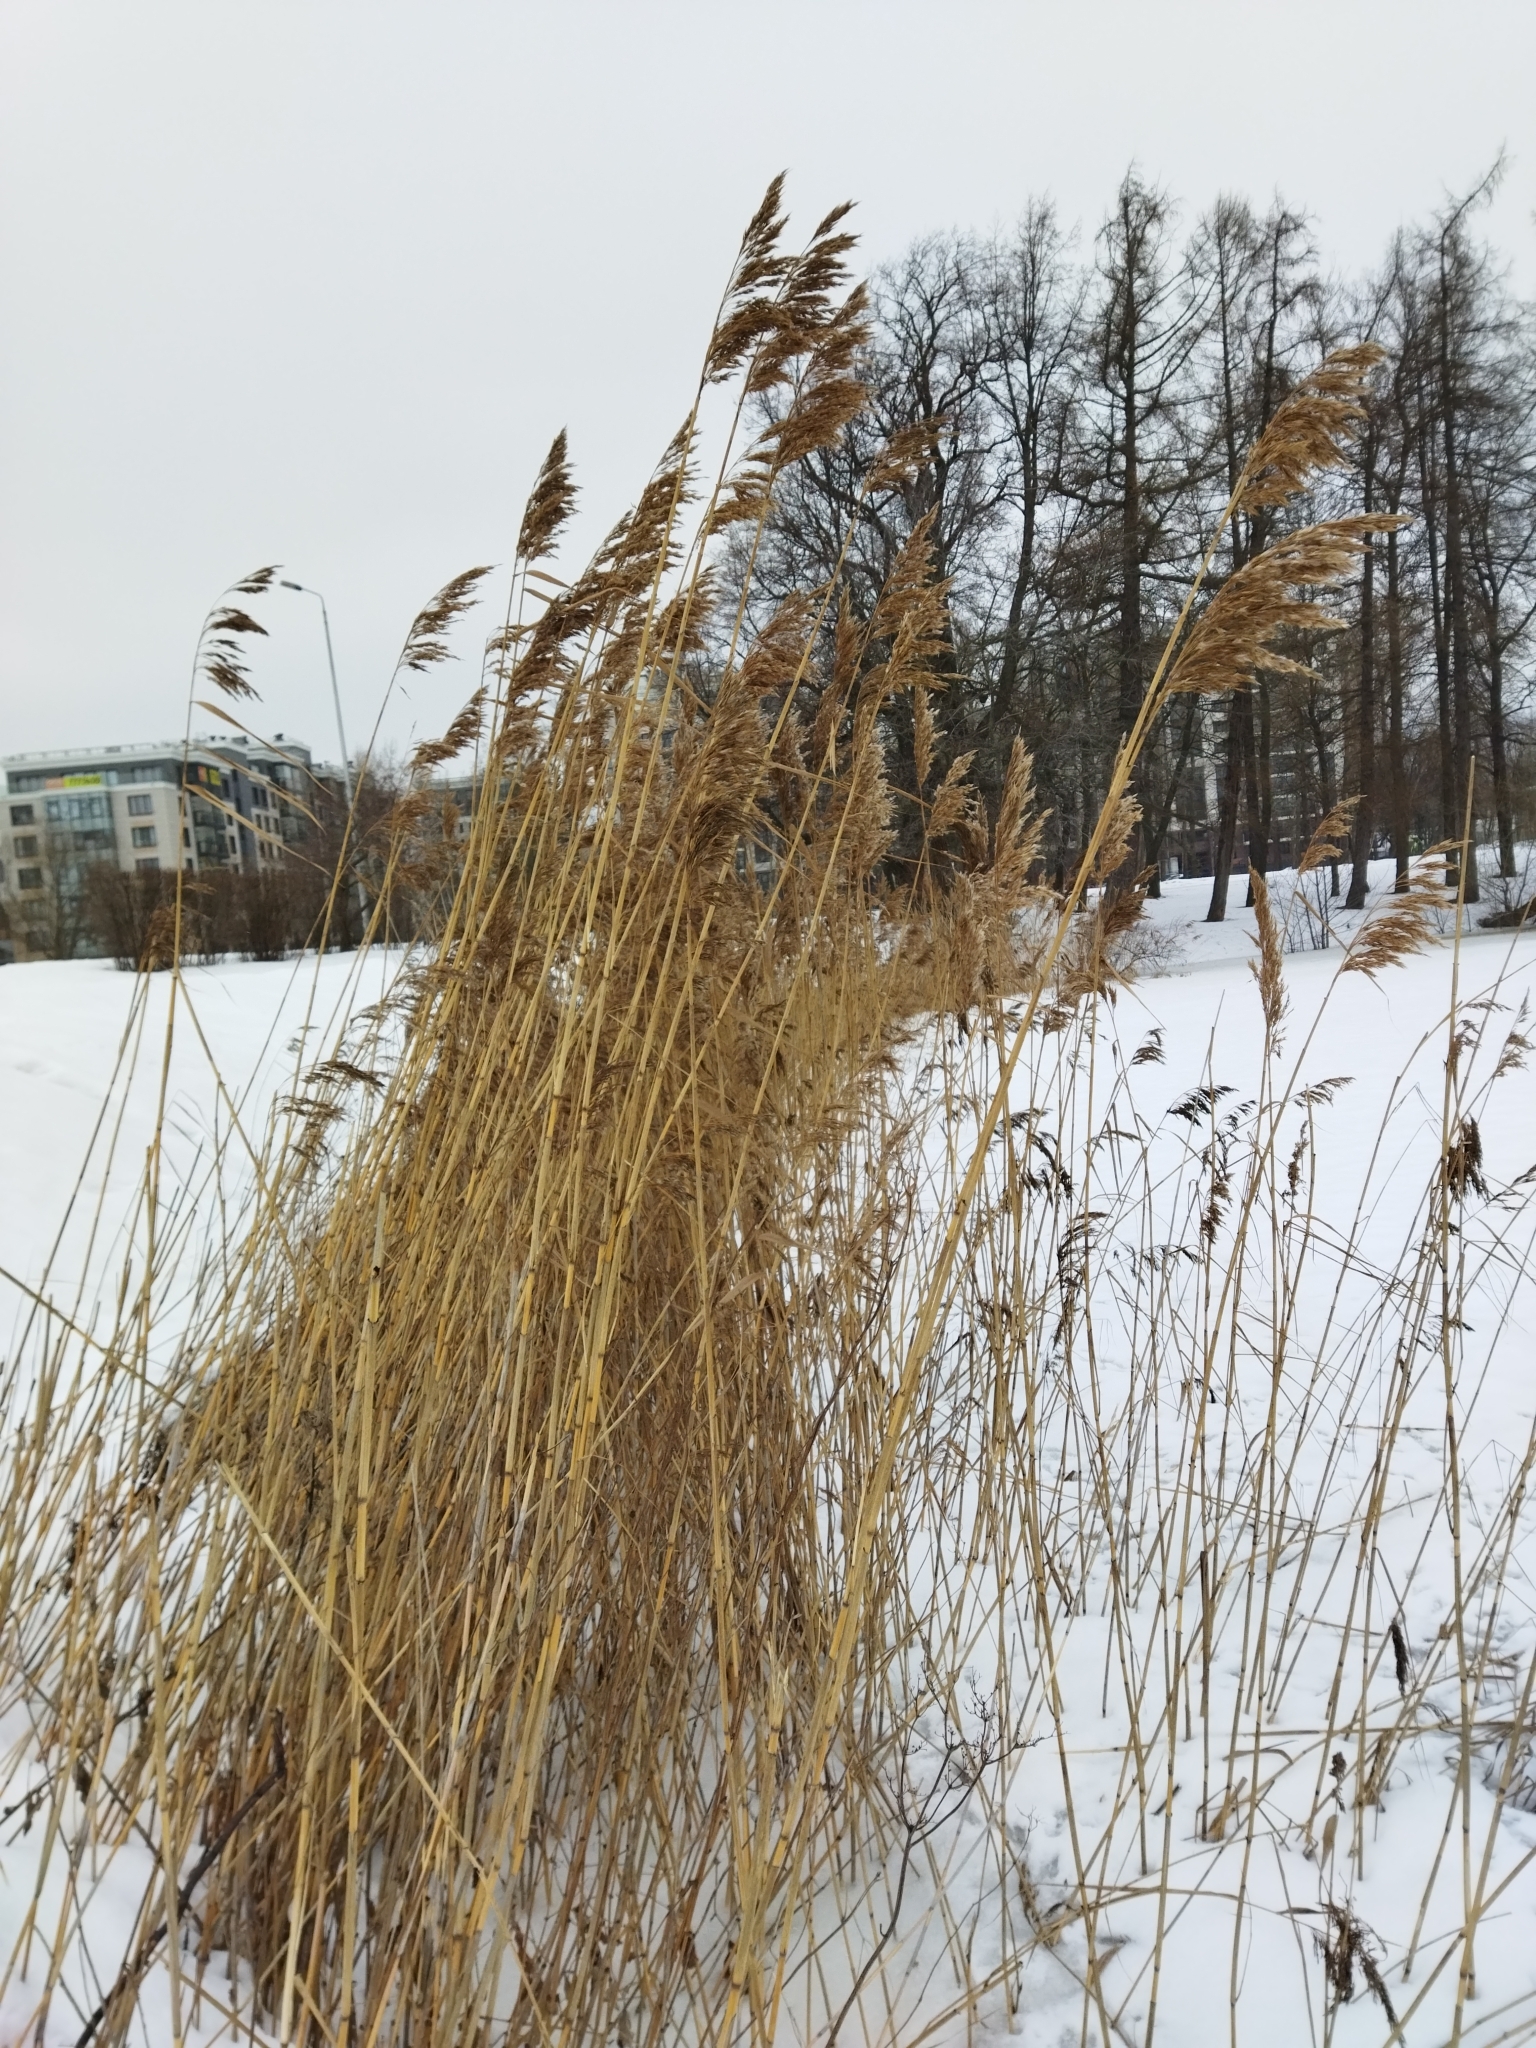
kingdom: Plantae
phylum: Tracheophyta
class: Liliopsida
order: Poales
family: Poaceae
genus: Phragmites
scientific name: Phragmites australis
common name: Common reed
